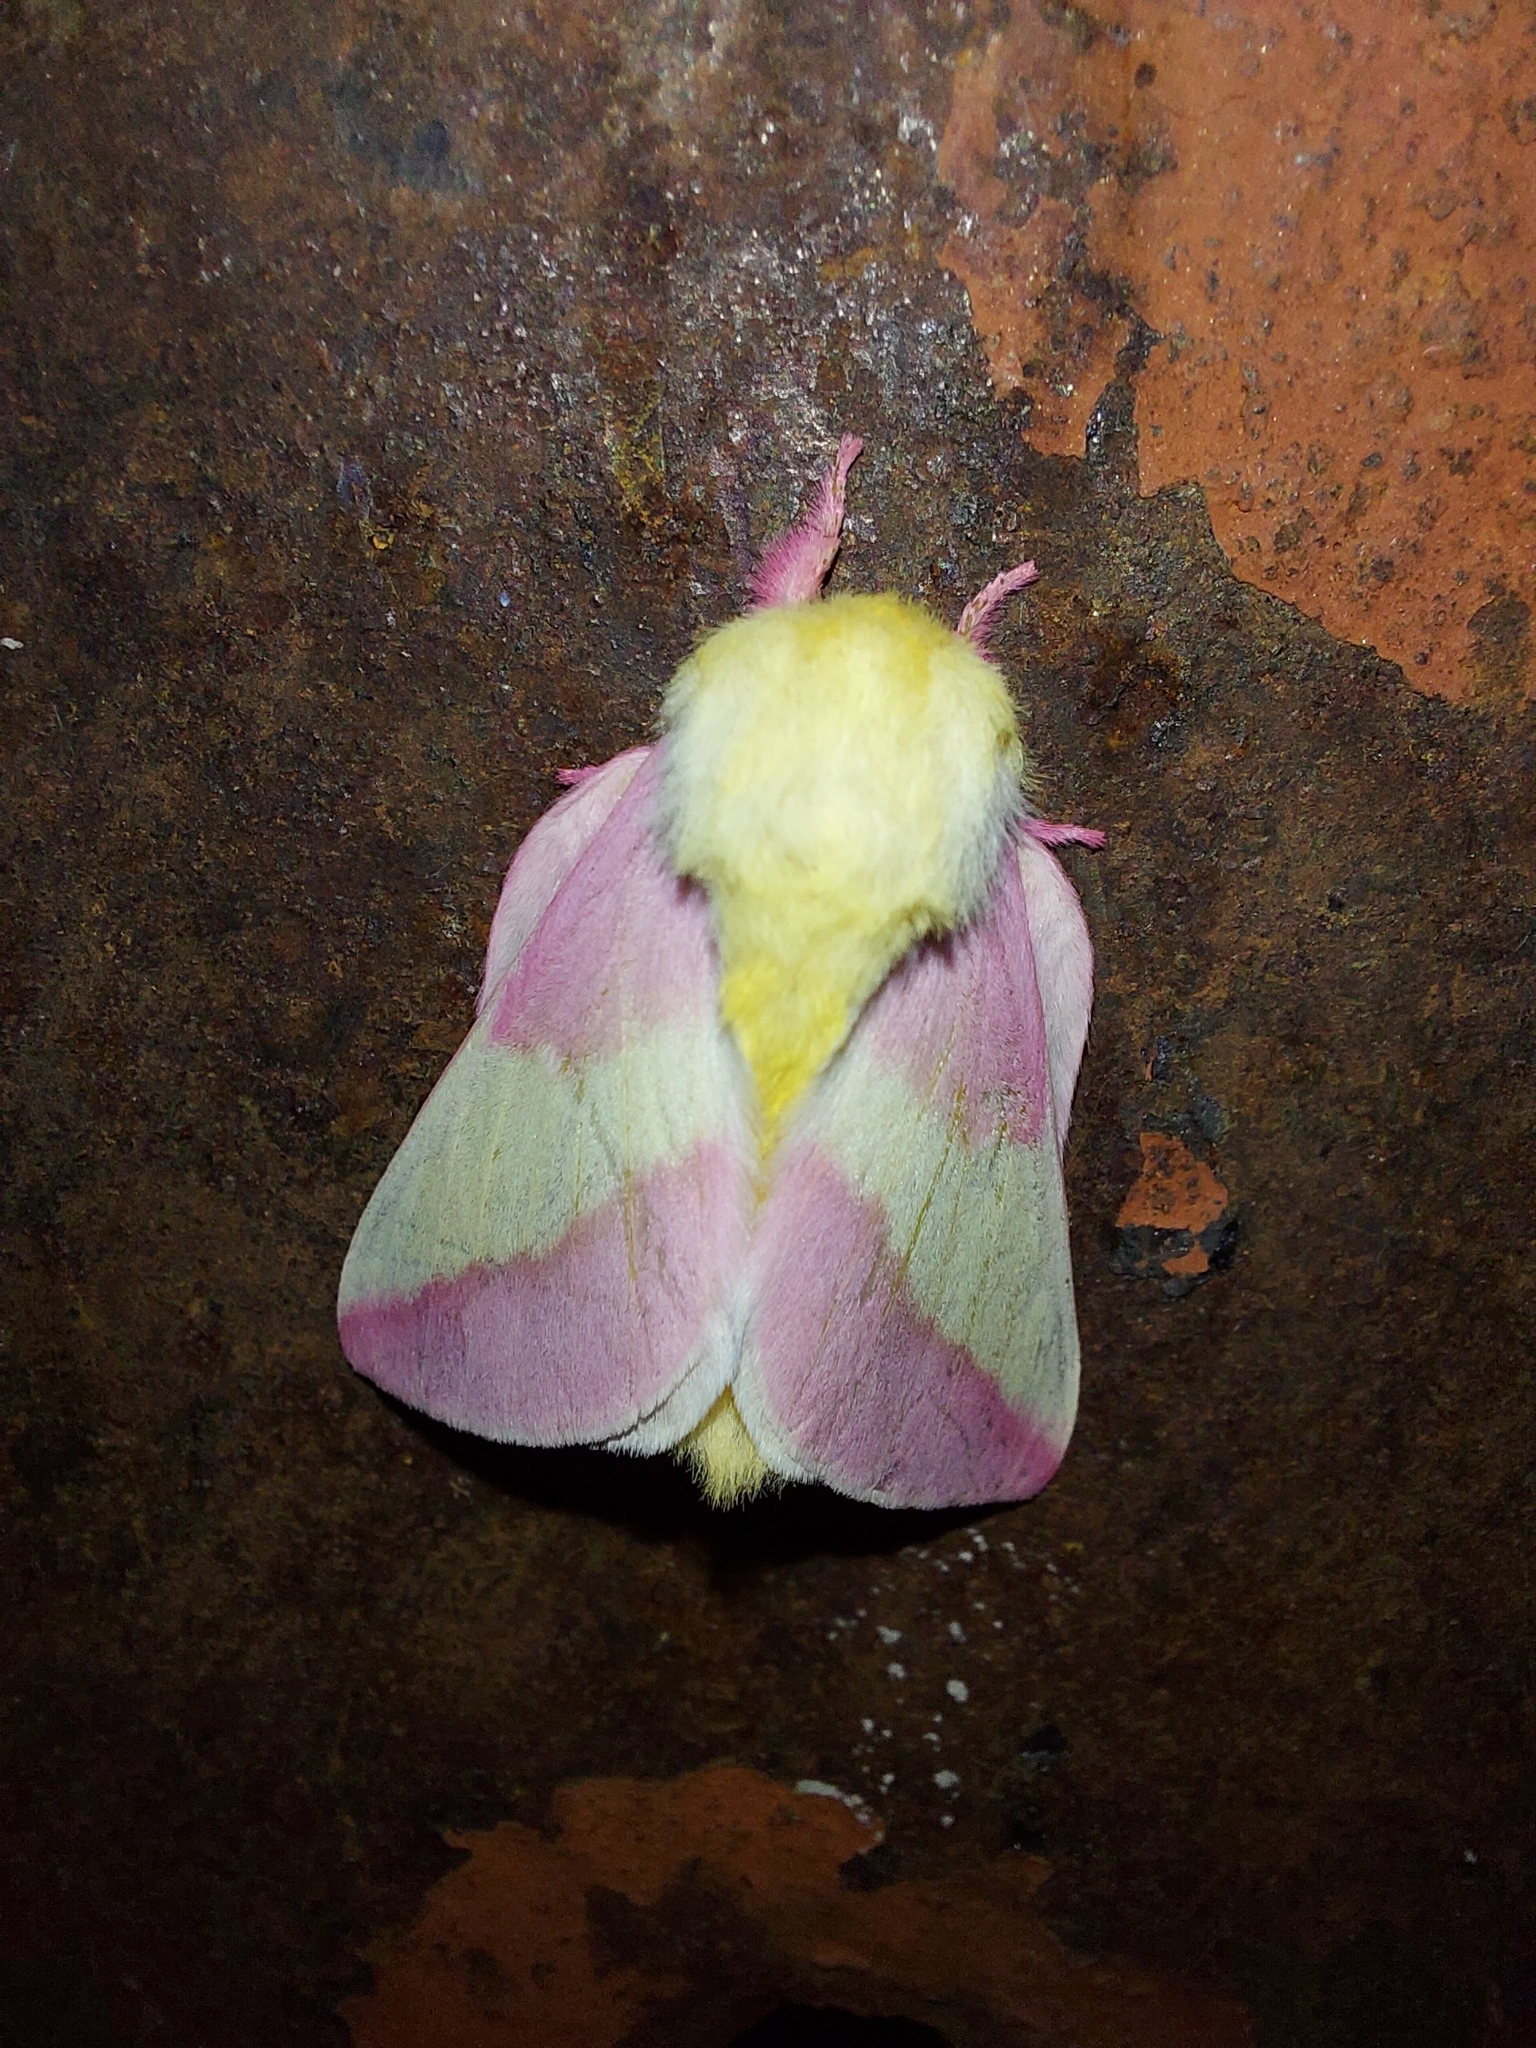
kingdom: Animalia
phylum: Arthropoda
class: Insecta
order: Lepidoptera
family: Saturniidae
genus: Dryocampa
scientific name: Dryocampa rubicunda
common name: Rosy maple moth
